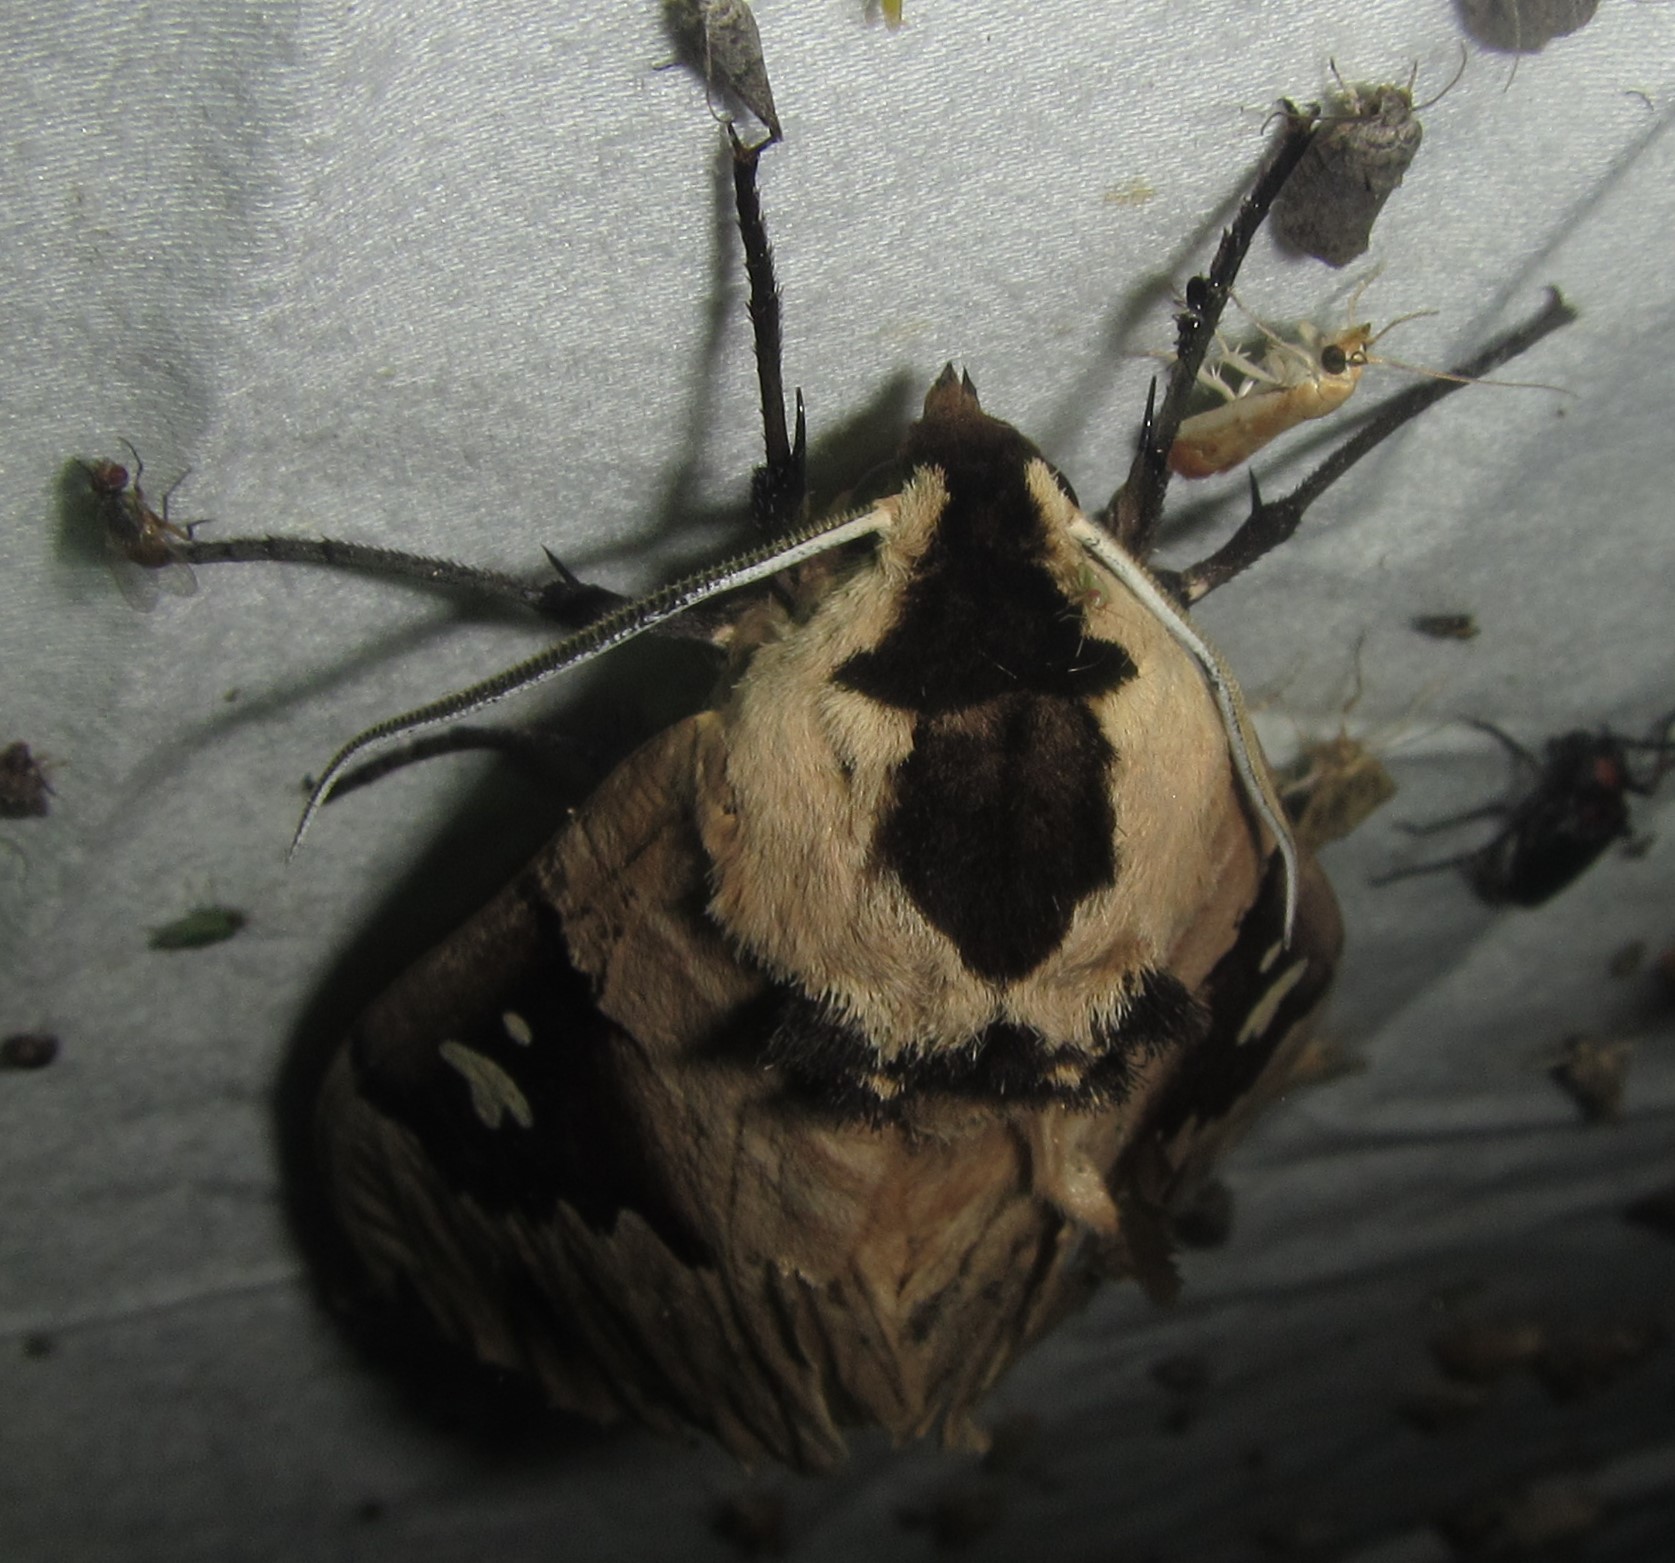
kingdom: Animalia
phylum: Arthropoda
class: Insecta
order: Lepidoptera
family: Sphingidae
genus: Lophostethus
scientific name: Lophostethus dumolinii
